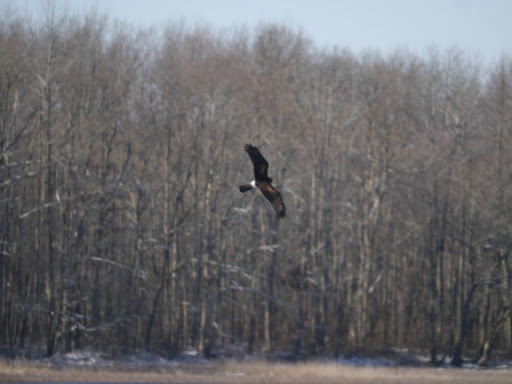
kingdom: Animalia
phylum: Chordata
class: Aves
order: Accipitriformes
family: Accipitridae
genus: Circus
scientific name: Circus cyaneus
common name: Hen harrier
